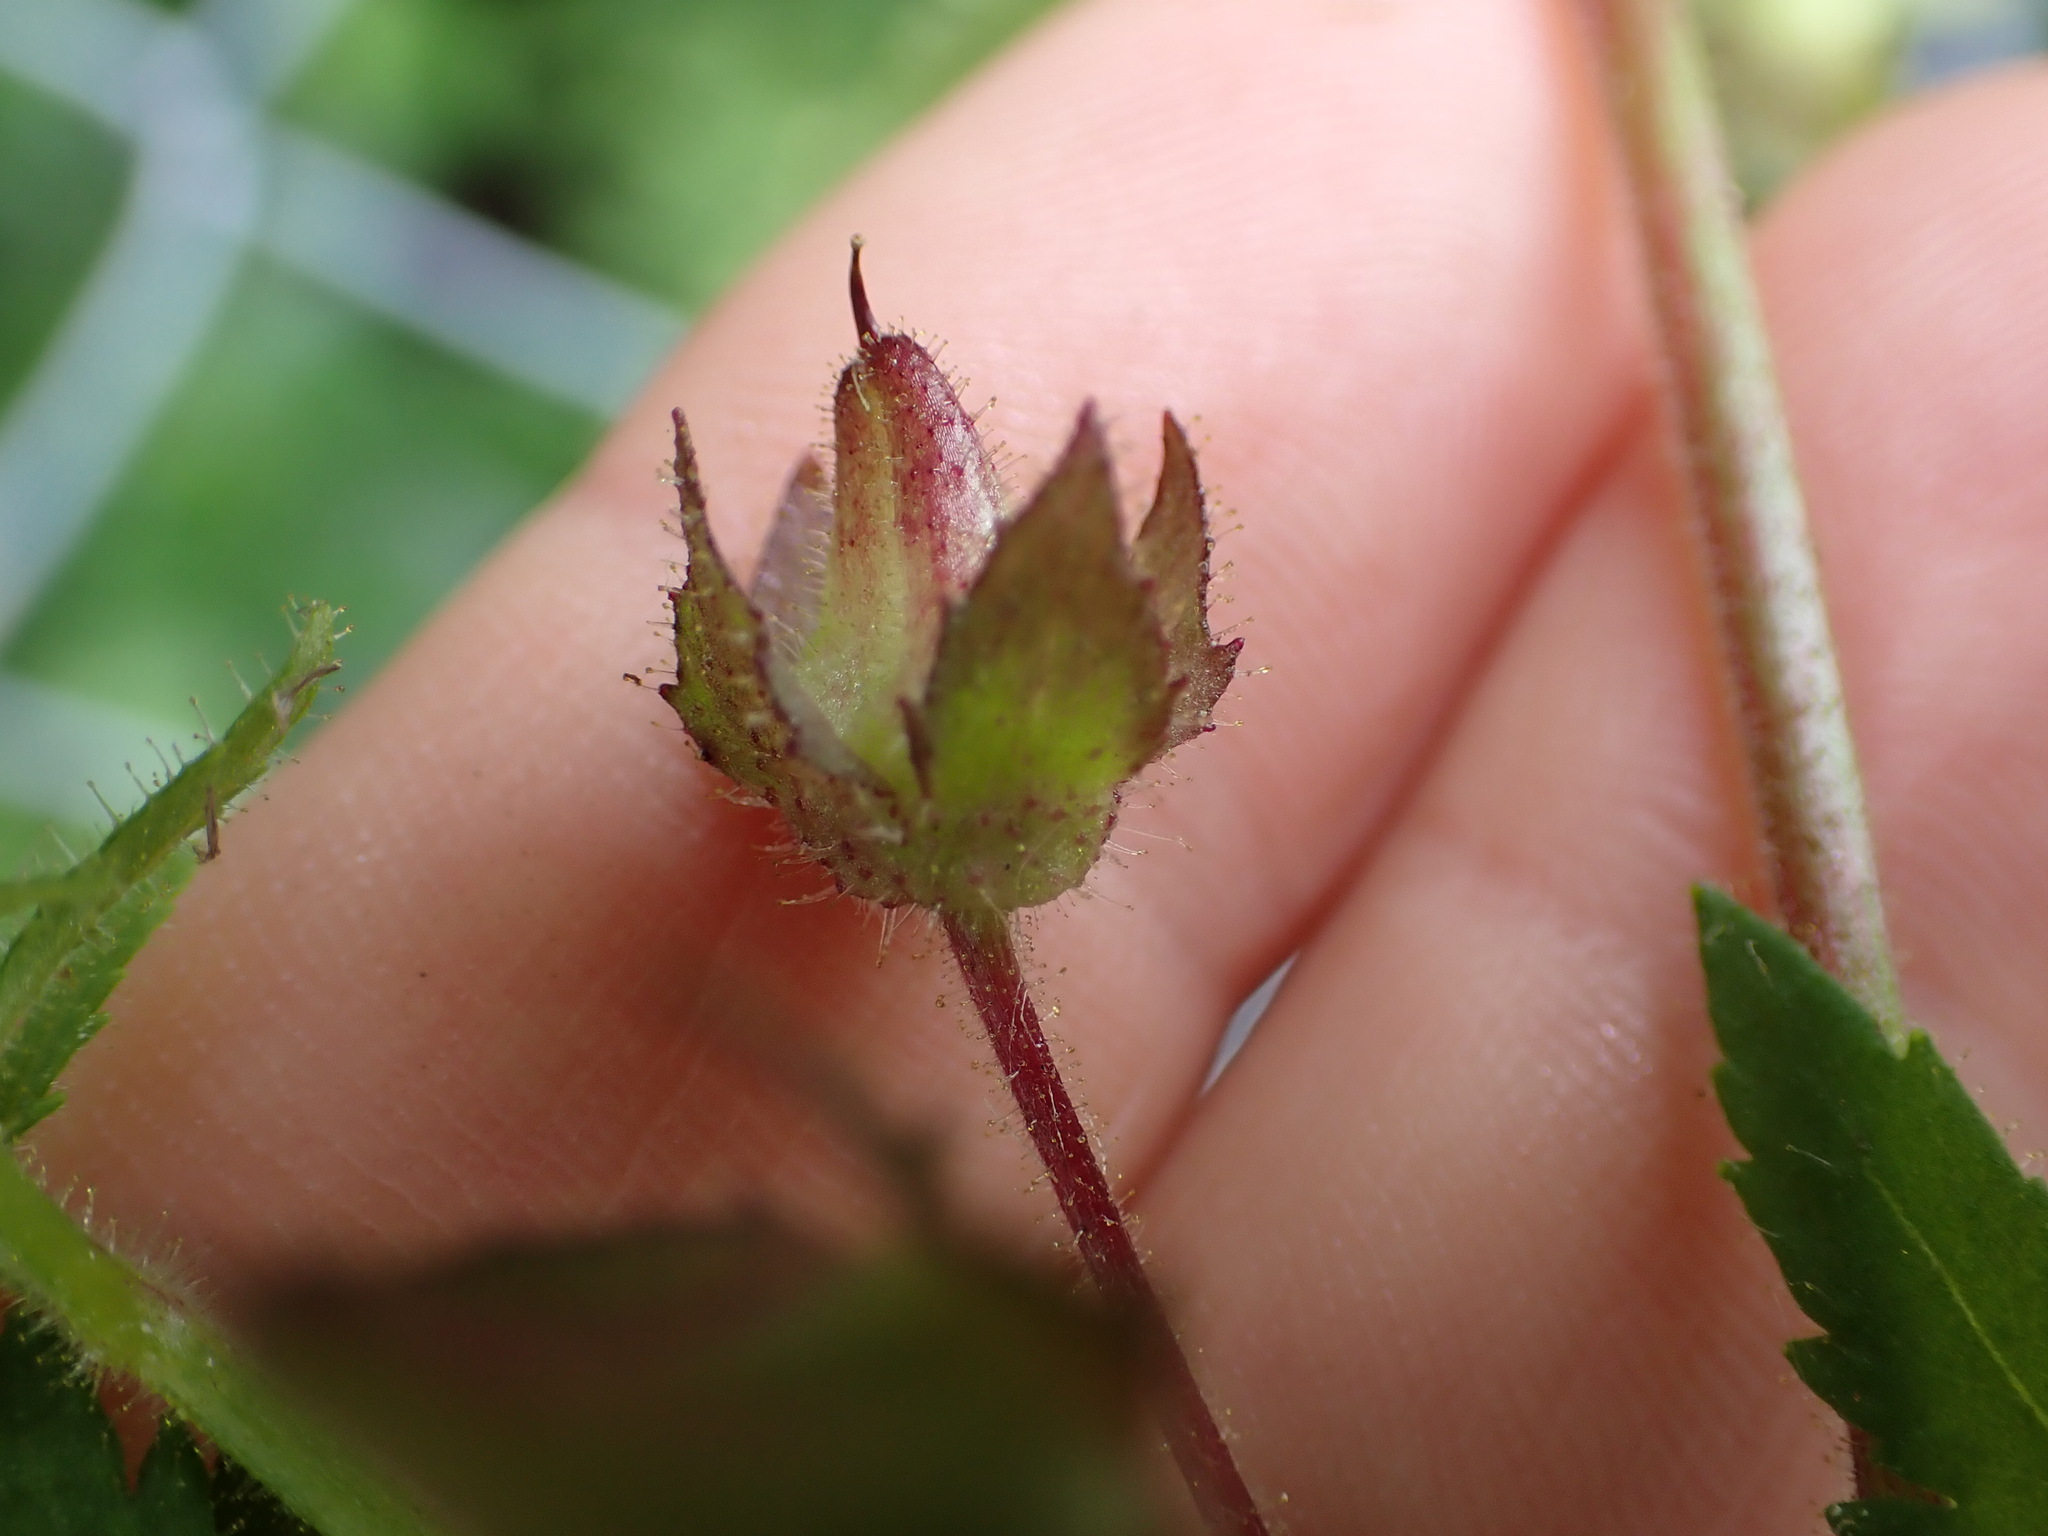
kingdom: Plantae
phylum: Tracheophyta
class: Magnoliopsida
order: Lamiales
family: Calceolariaceae
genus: Calceolaria
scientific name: Calceolaria tripartita
